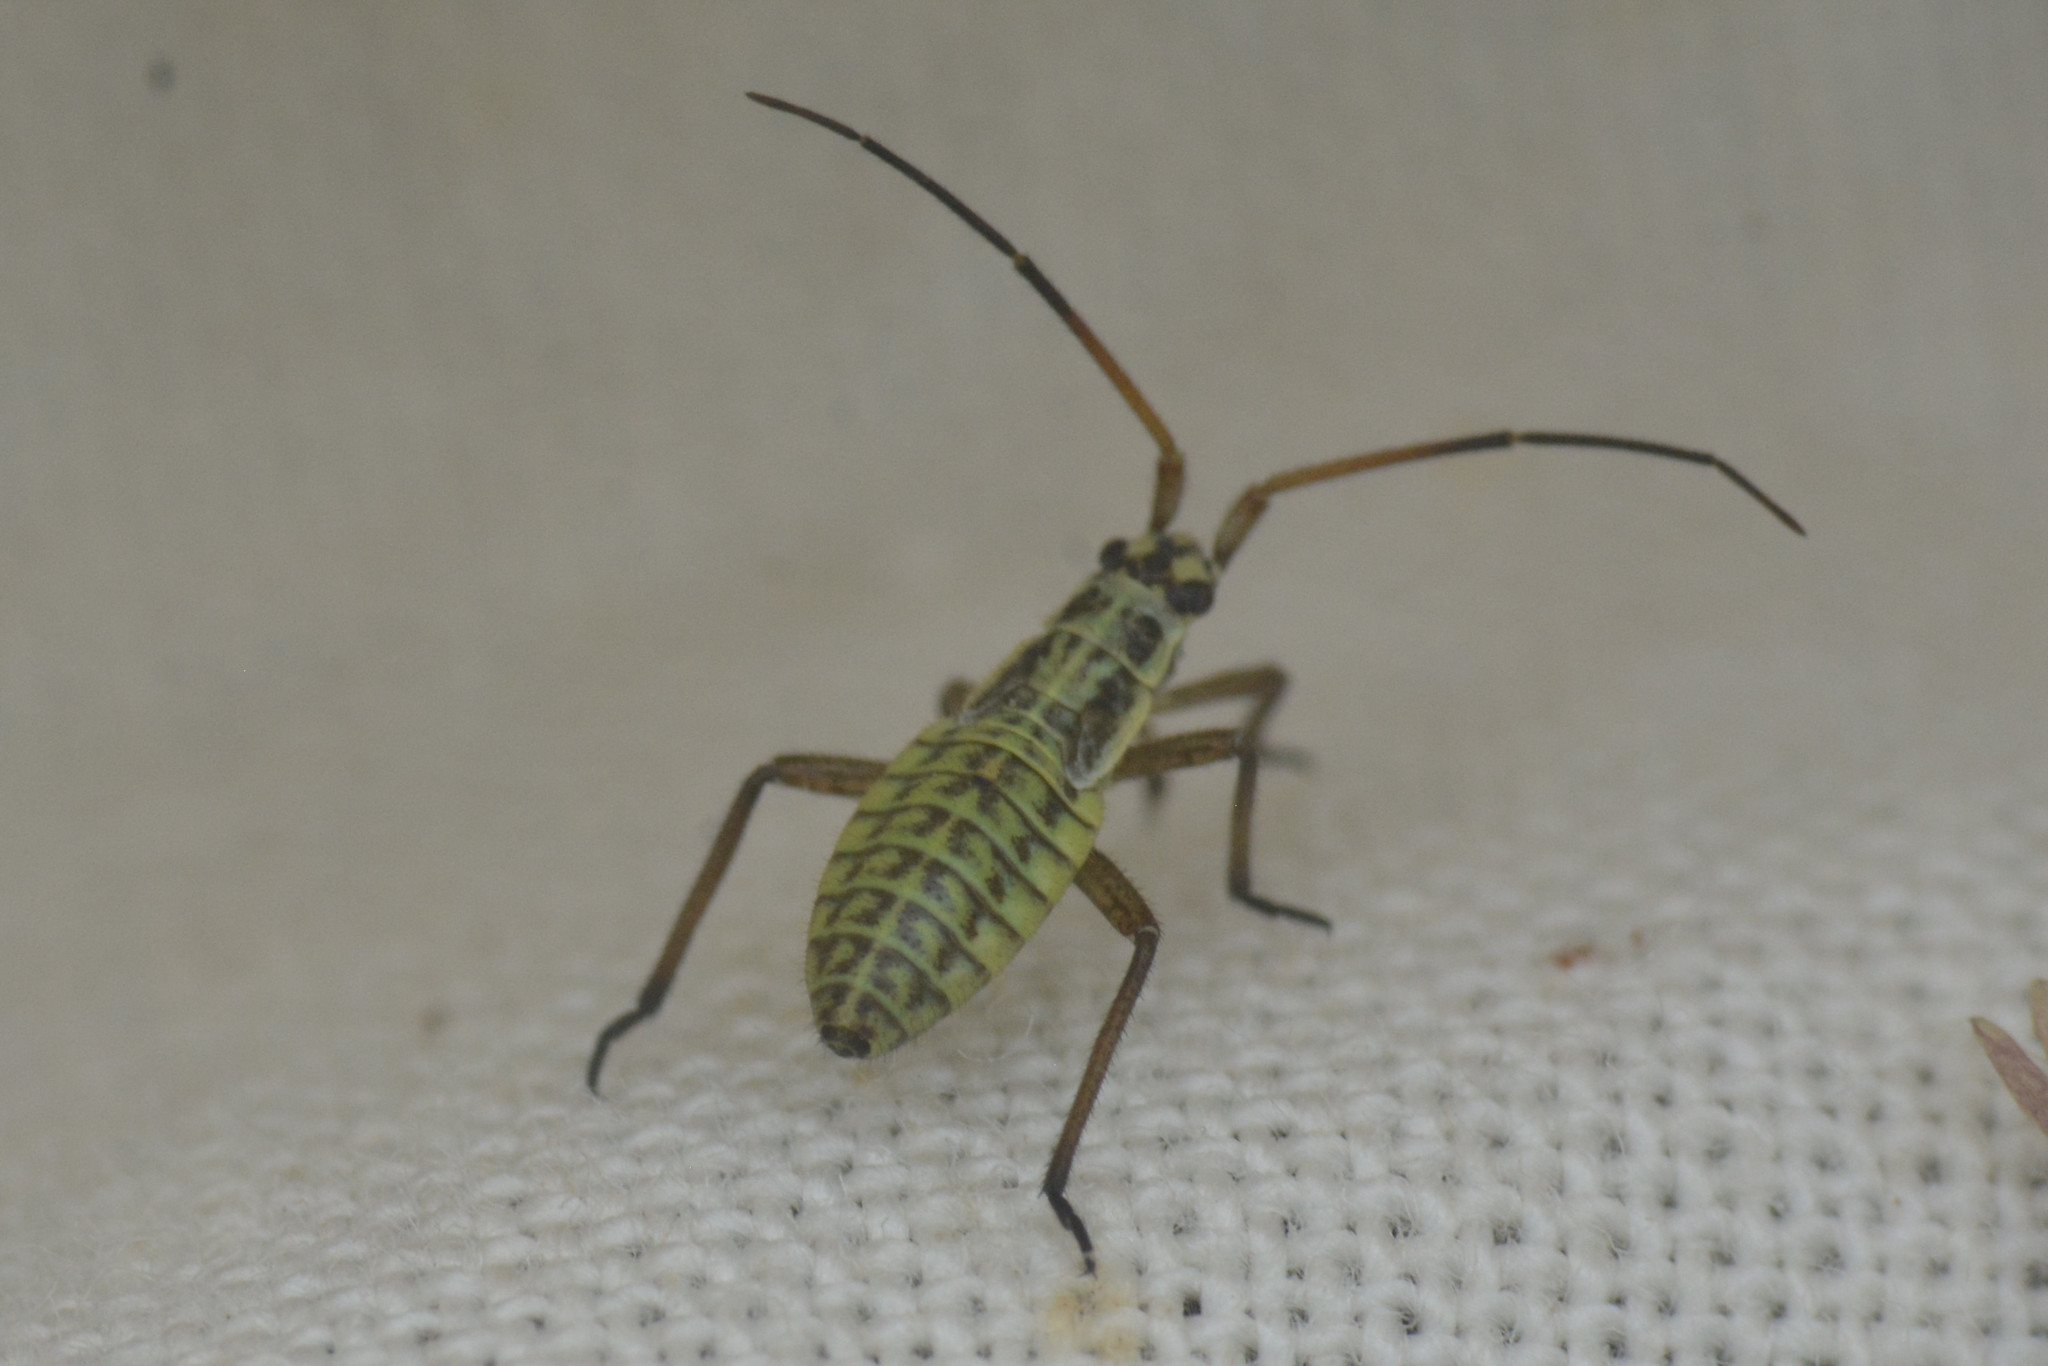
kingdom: Animalia
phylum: Arthropoda
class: Insecta
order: Hemiptera
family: Miridae
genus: Leptopterna
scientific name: Leptopterna dolabrata
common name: Meadow plant bug
